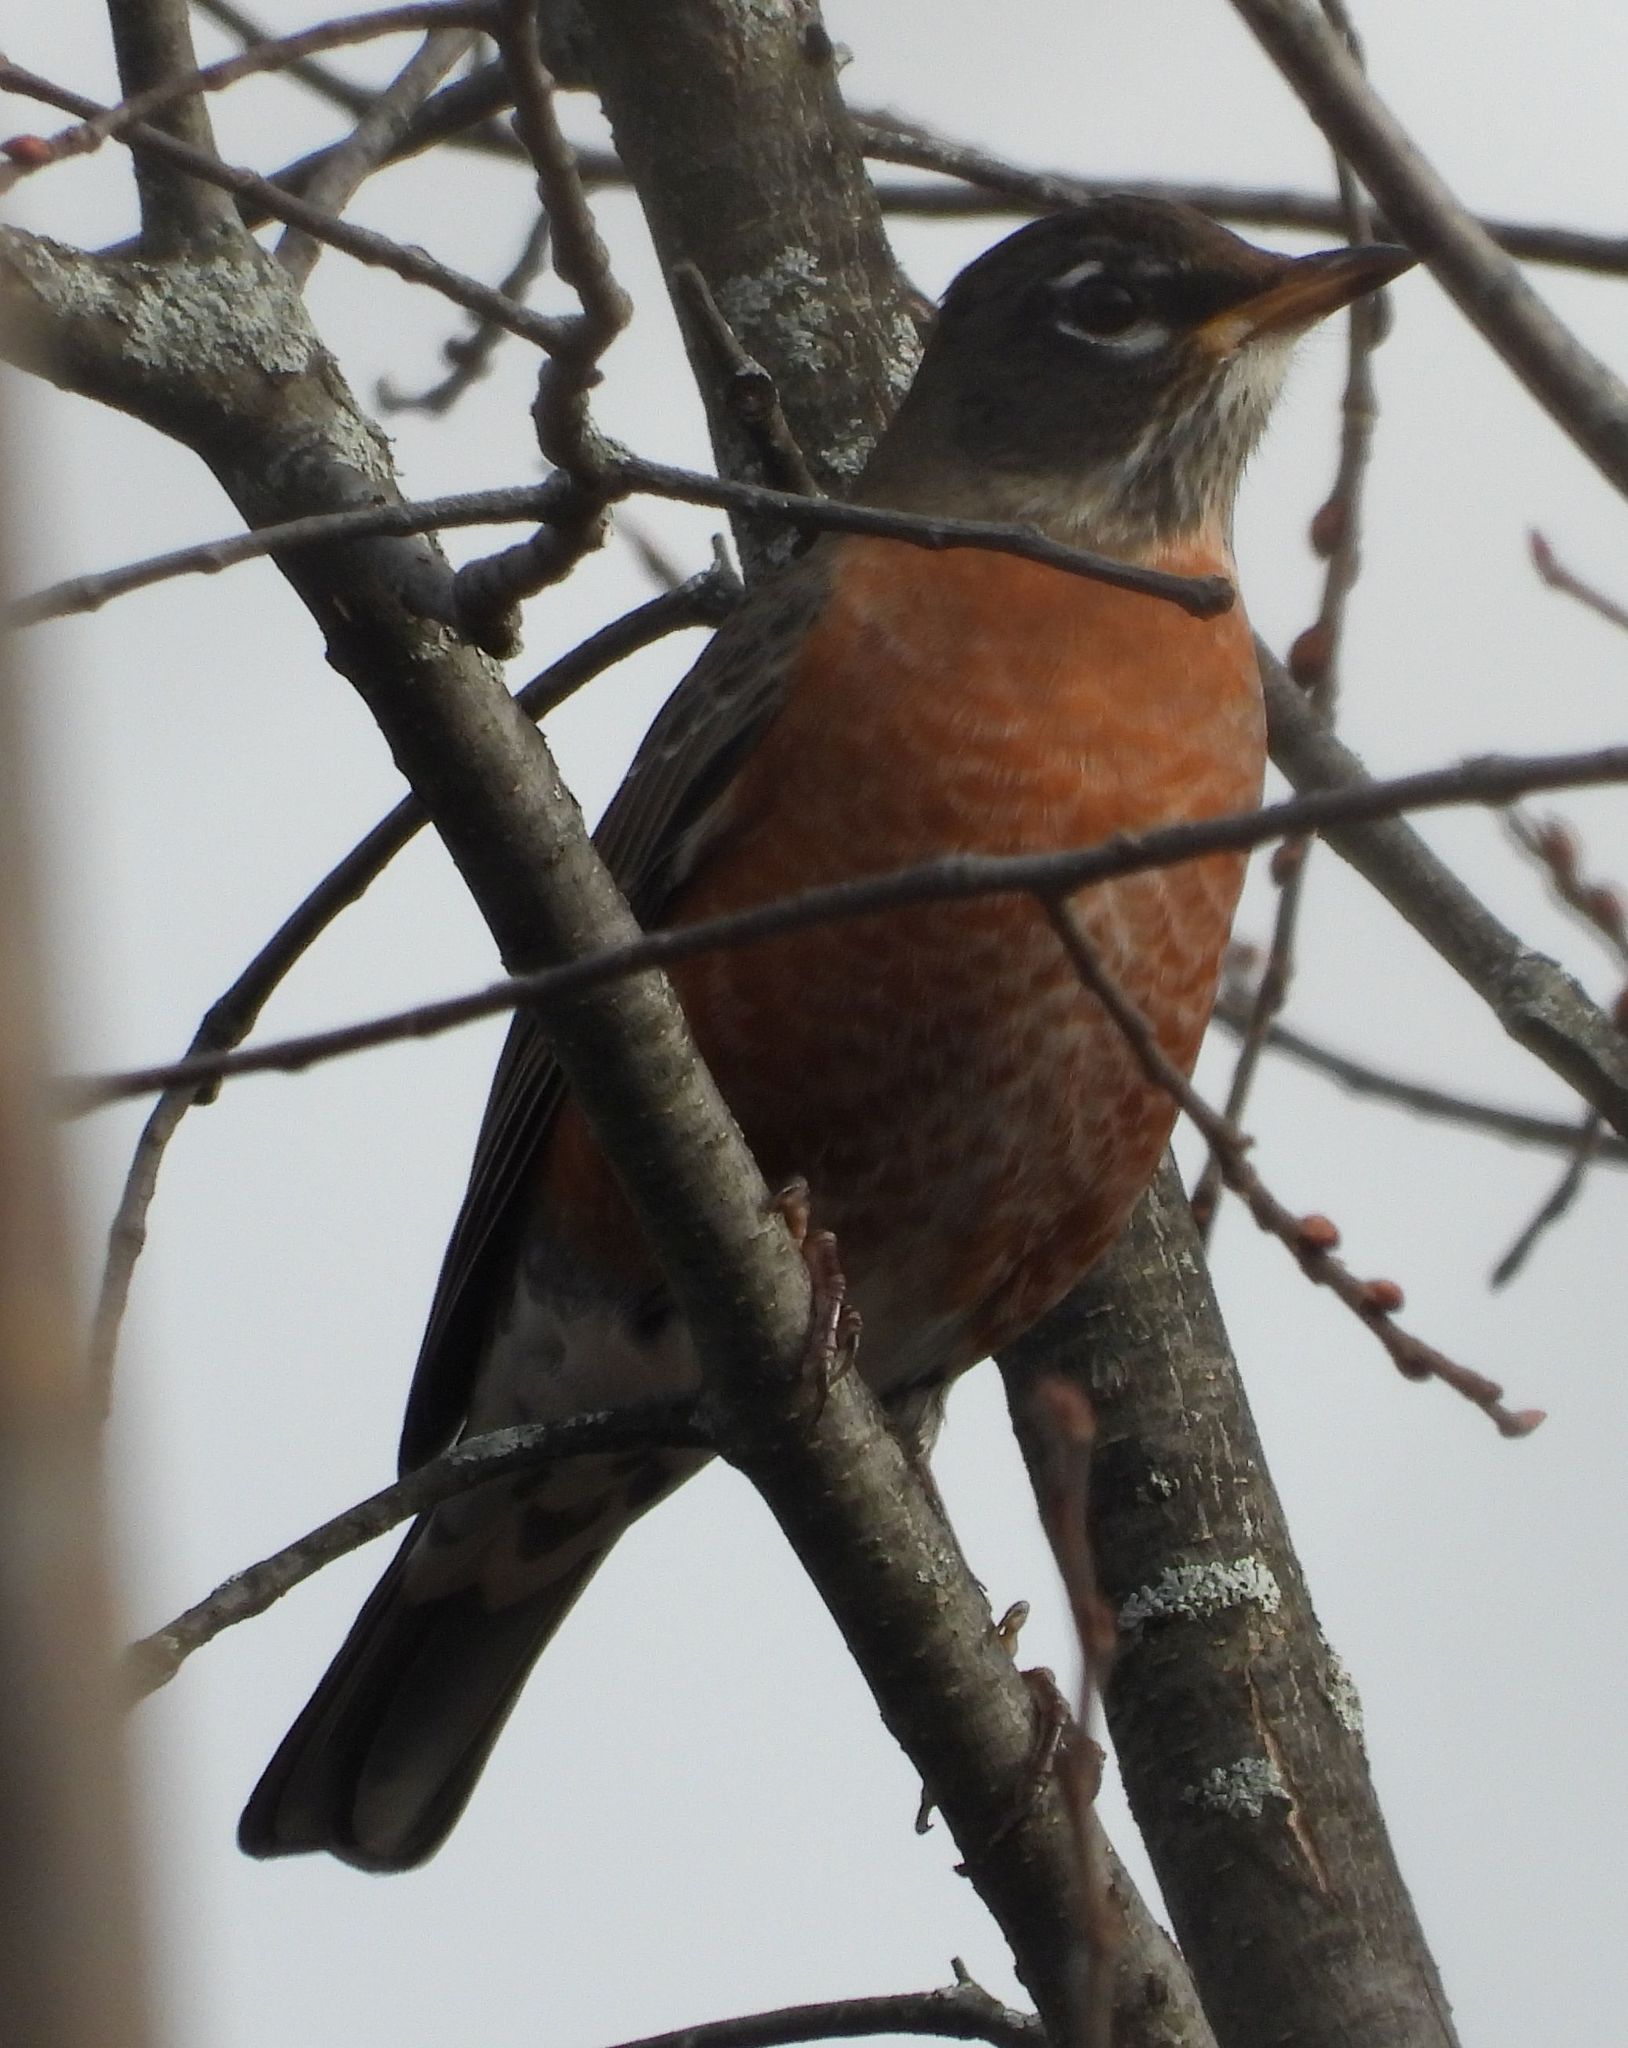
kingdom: Animalia
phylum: Chordata
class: Aves
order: Passeriformes
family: Turdidae
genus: Turdus
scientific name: Turdus migratorius
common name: American robin
